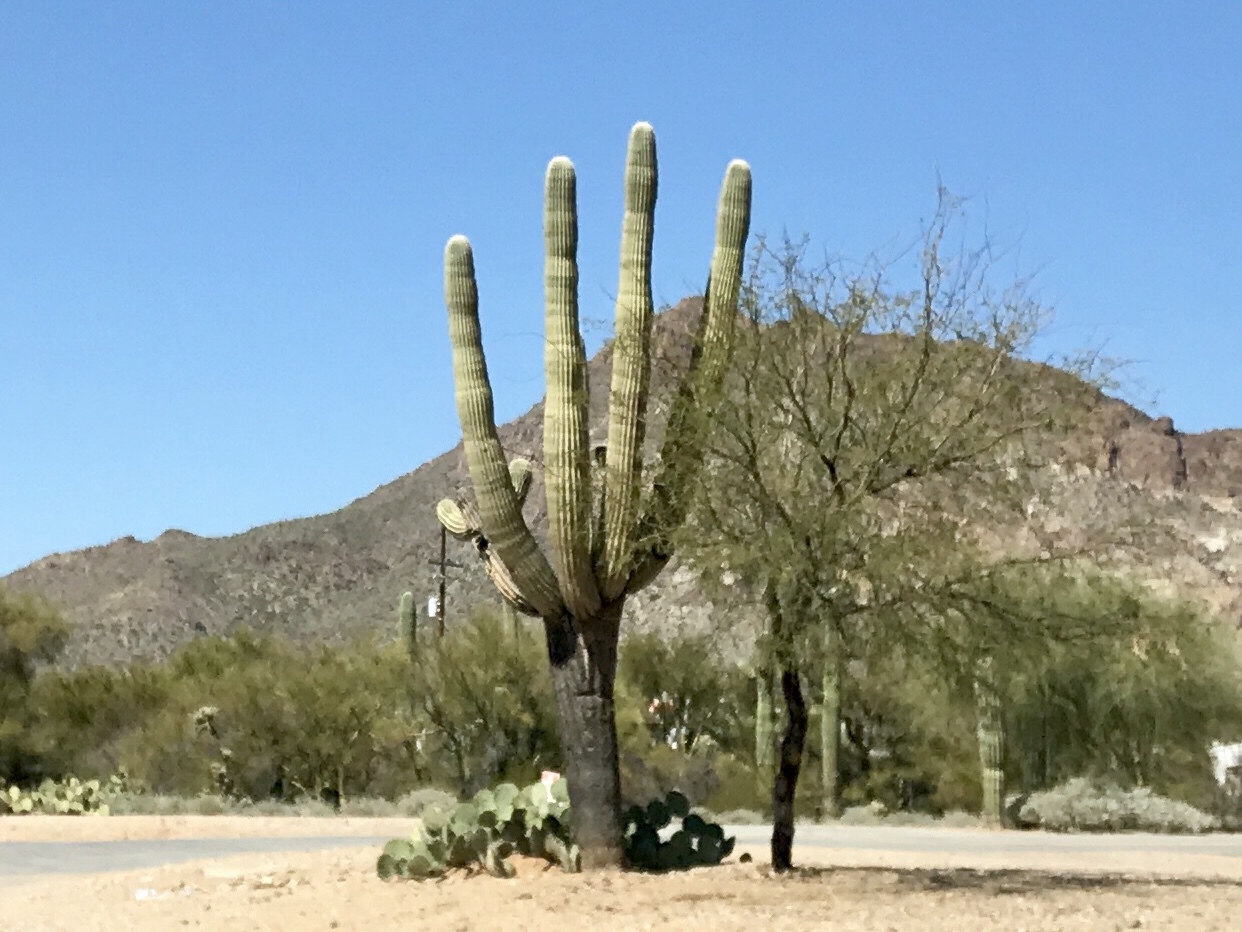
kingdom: Plantae
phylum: Tracheophyta
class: Magnoliopsida
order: Caryophyllales
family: Cactaceae
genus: Carnegiea
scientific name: Carnegiea gigantea
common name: Saguaro
